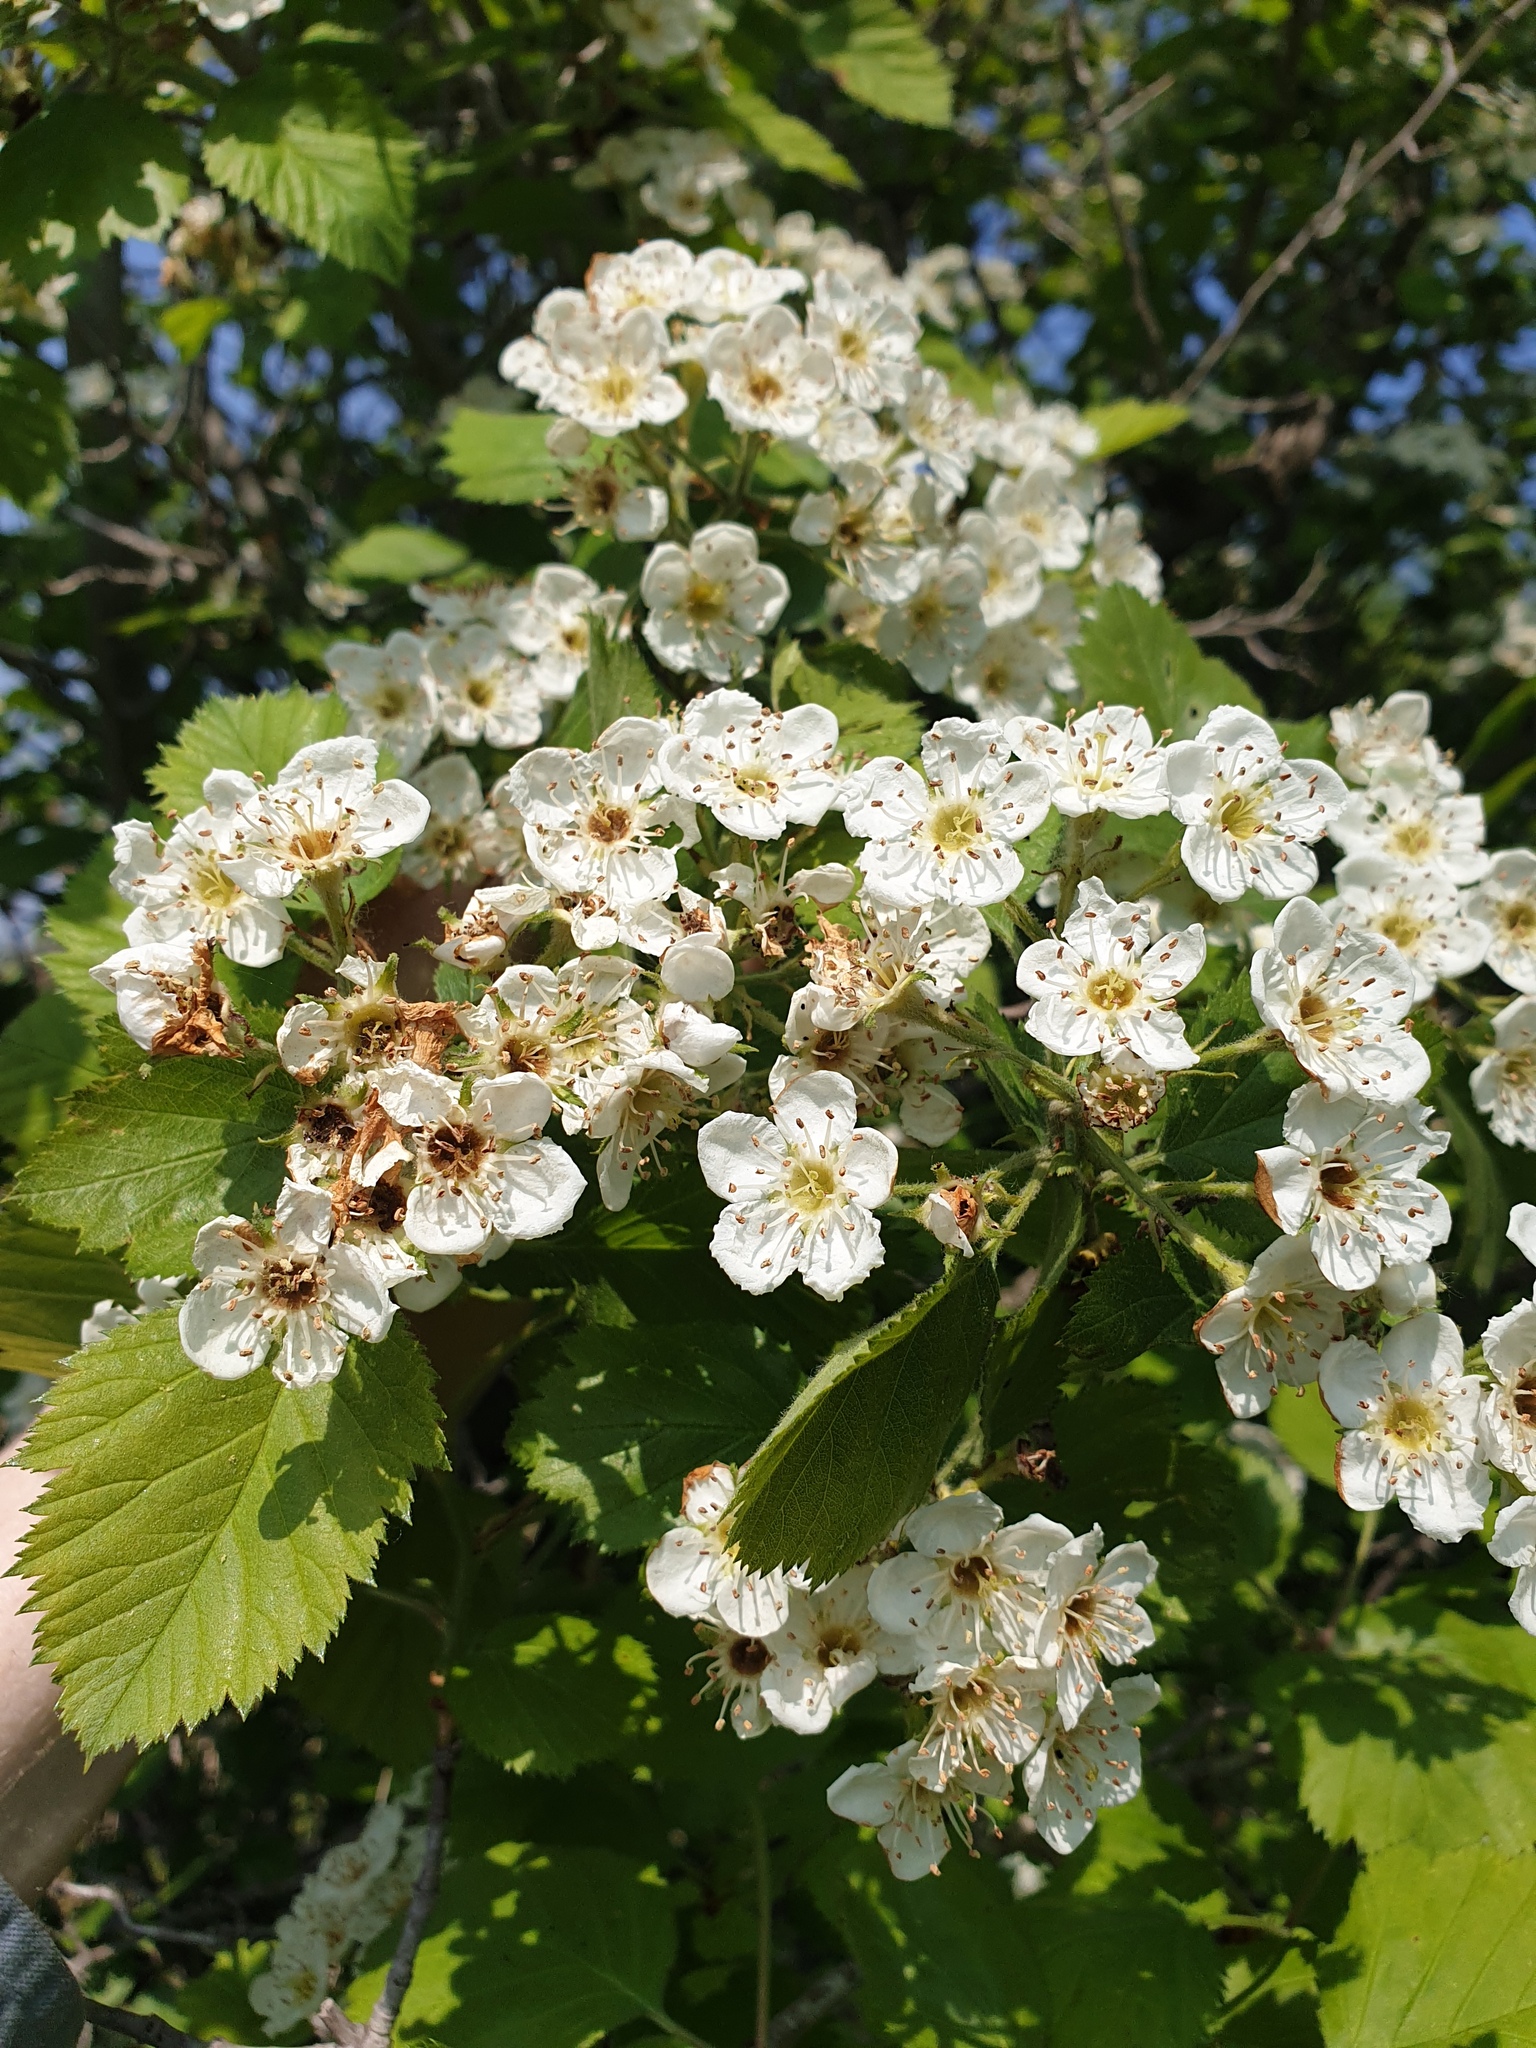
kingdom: Plantae
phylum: Tracheophyta
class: Magnoliopsida
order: Rosales
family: Rosaceae
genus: Crataegus
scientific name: Crataegus mollis
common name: Downy hawthorn
